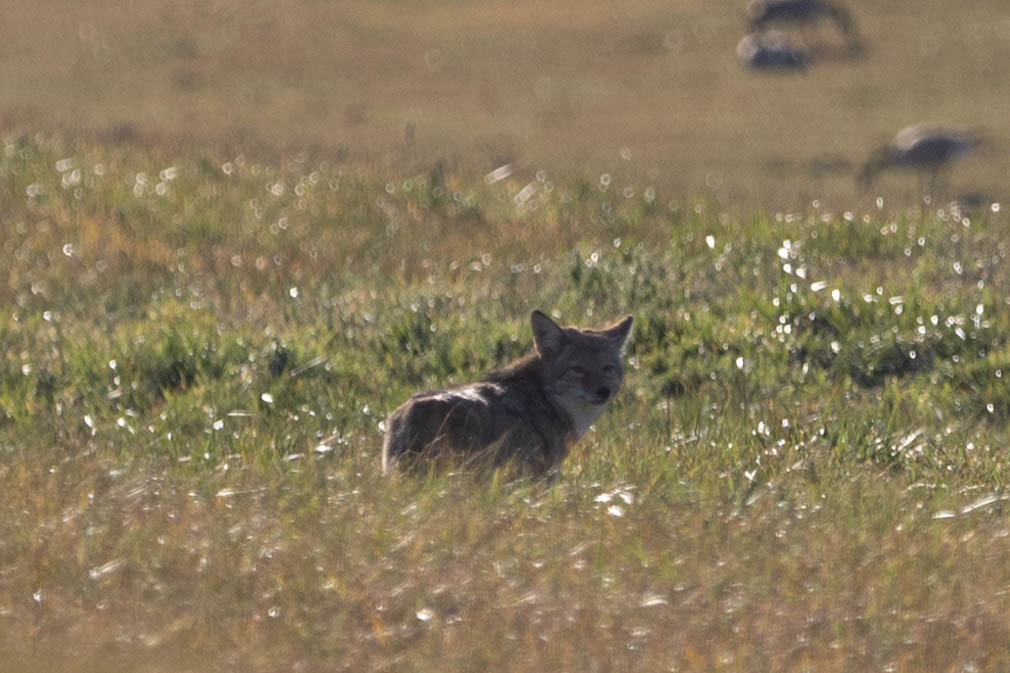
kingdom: Animalia
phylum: Chordata
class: Mammalia
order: Carnivora
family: Canidae
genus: Canis
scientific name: Canis latrans
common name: Coyote
